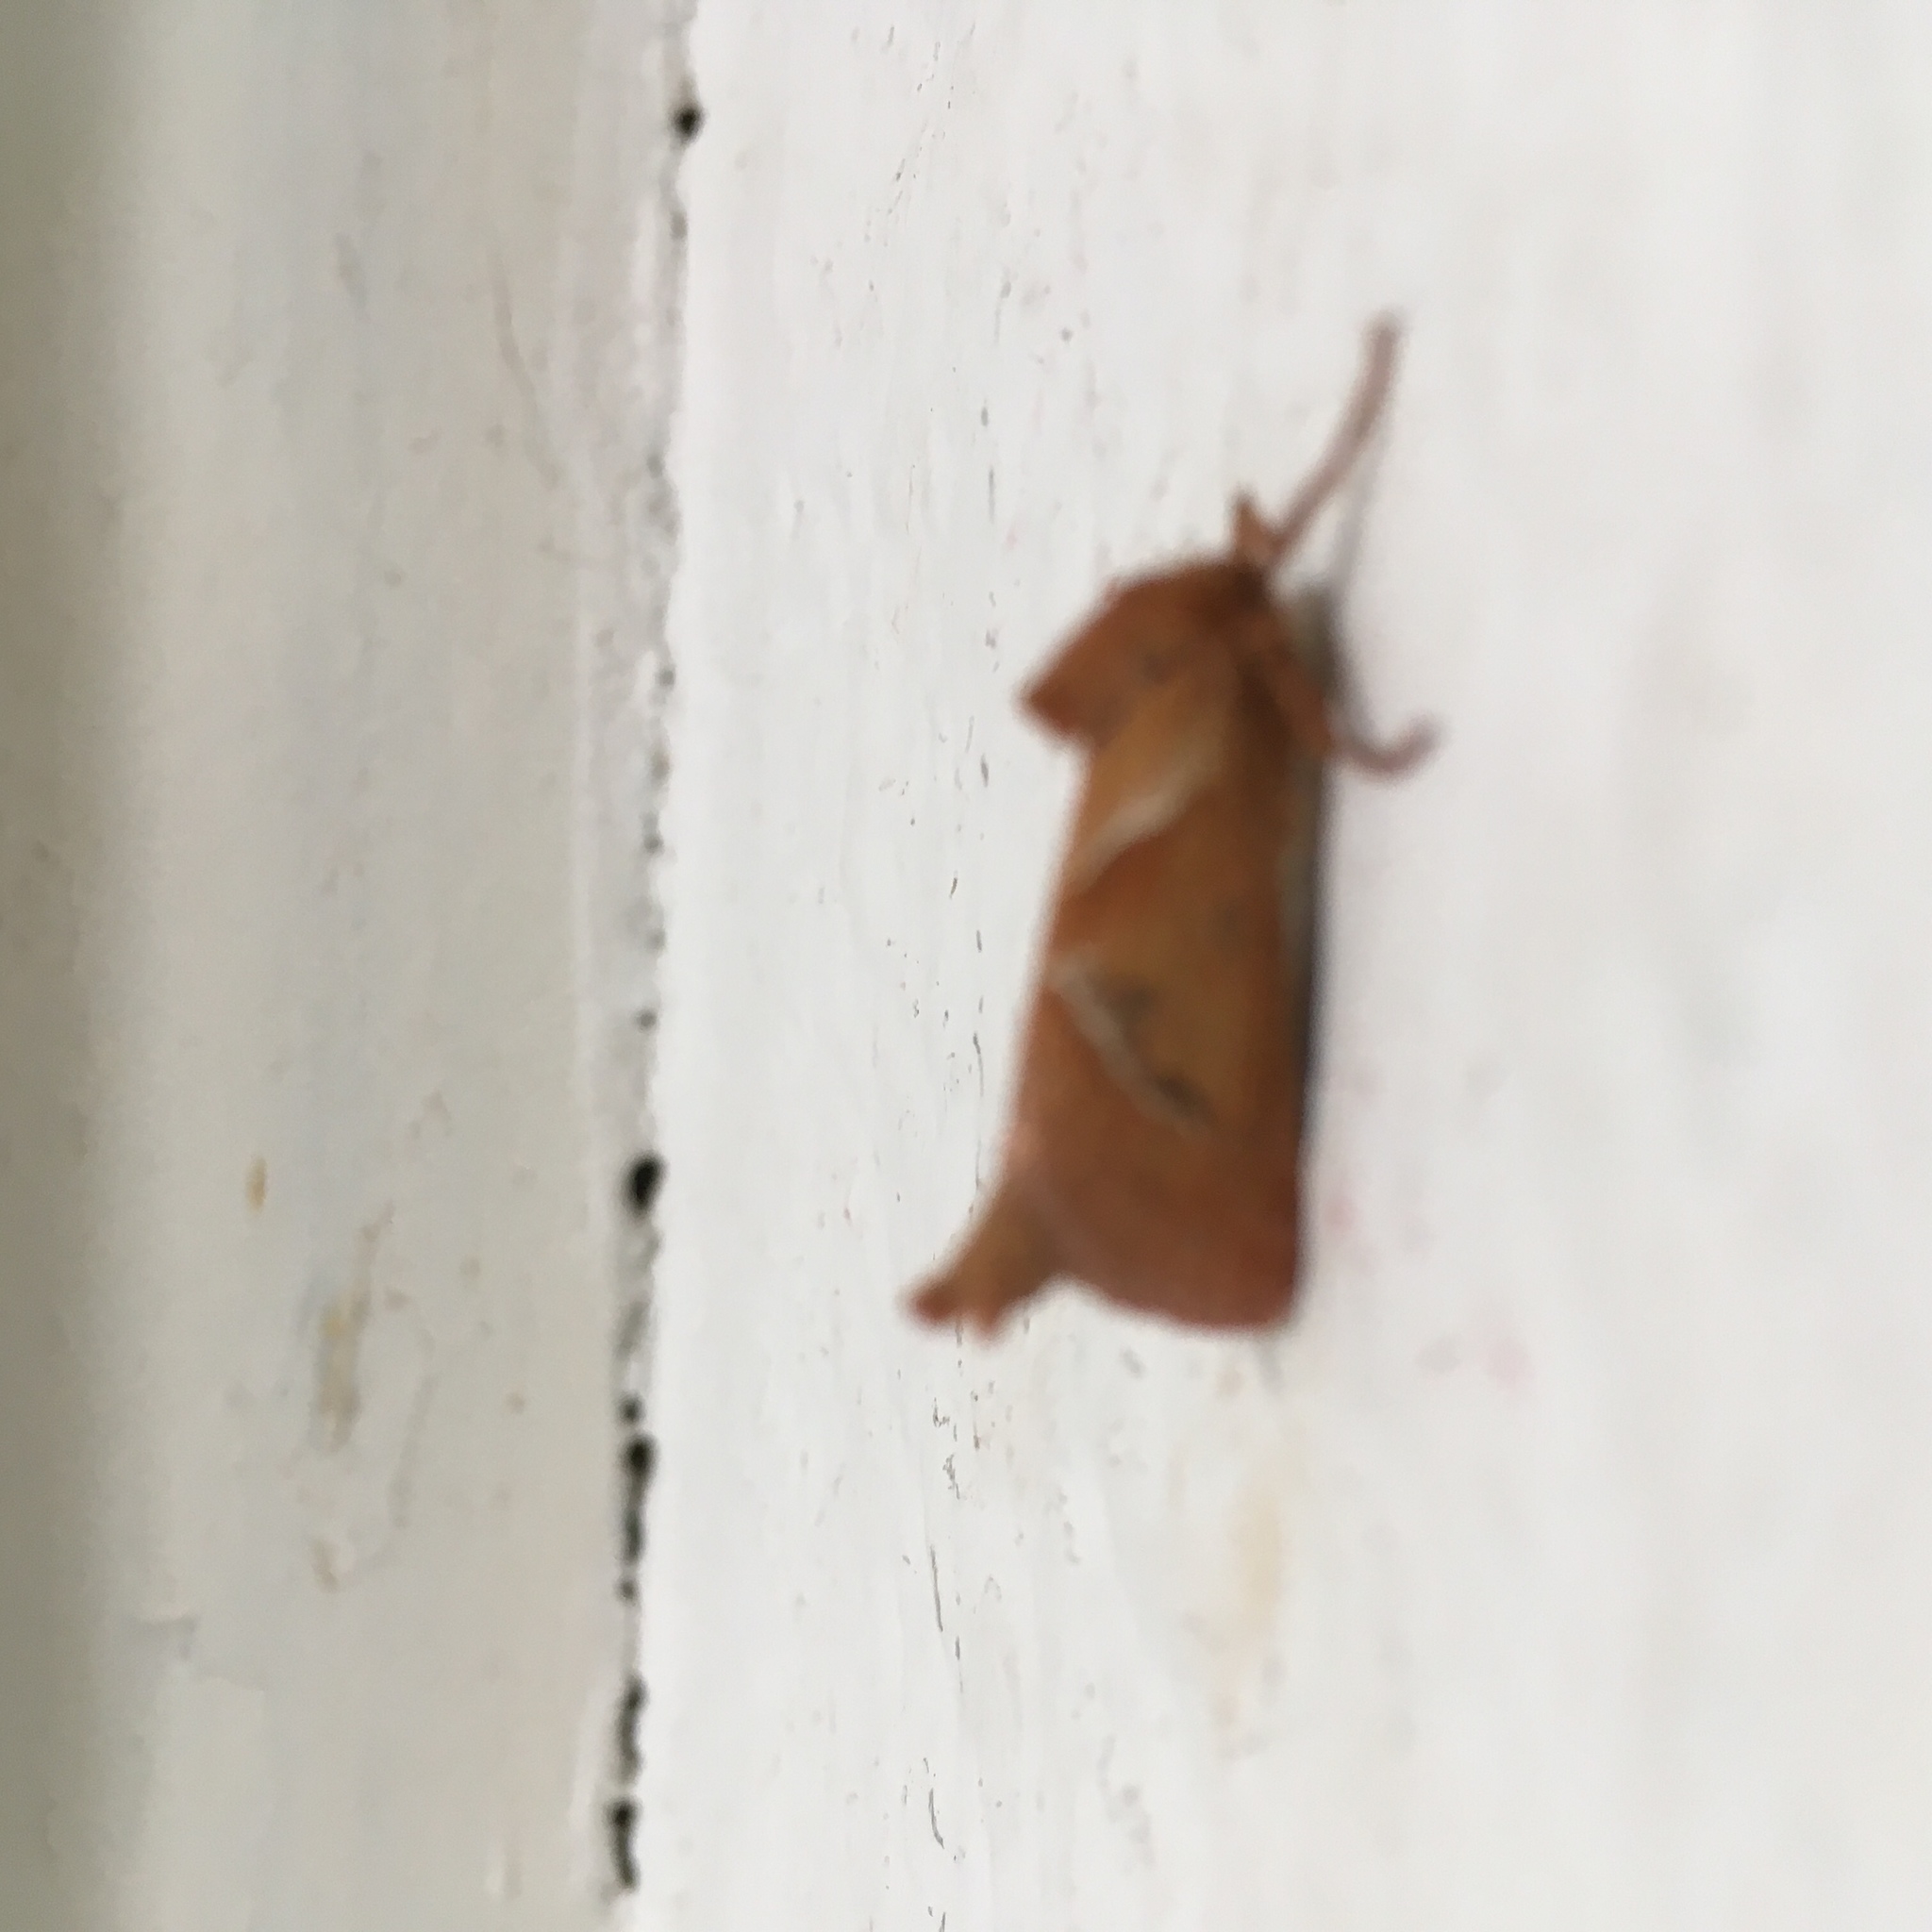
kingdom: Animalia
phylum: Arthropoda
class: Insecta
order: Lepidoptera
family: Hepialidae
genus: Triodia
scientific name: Triodia sylvina
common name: Orange swift
